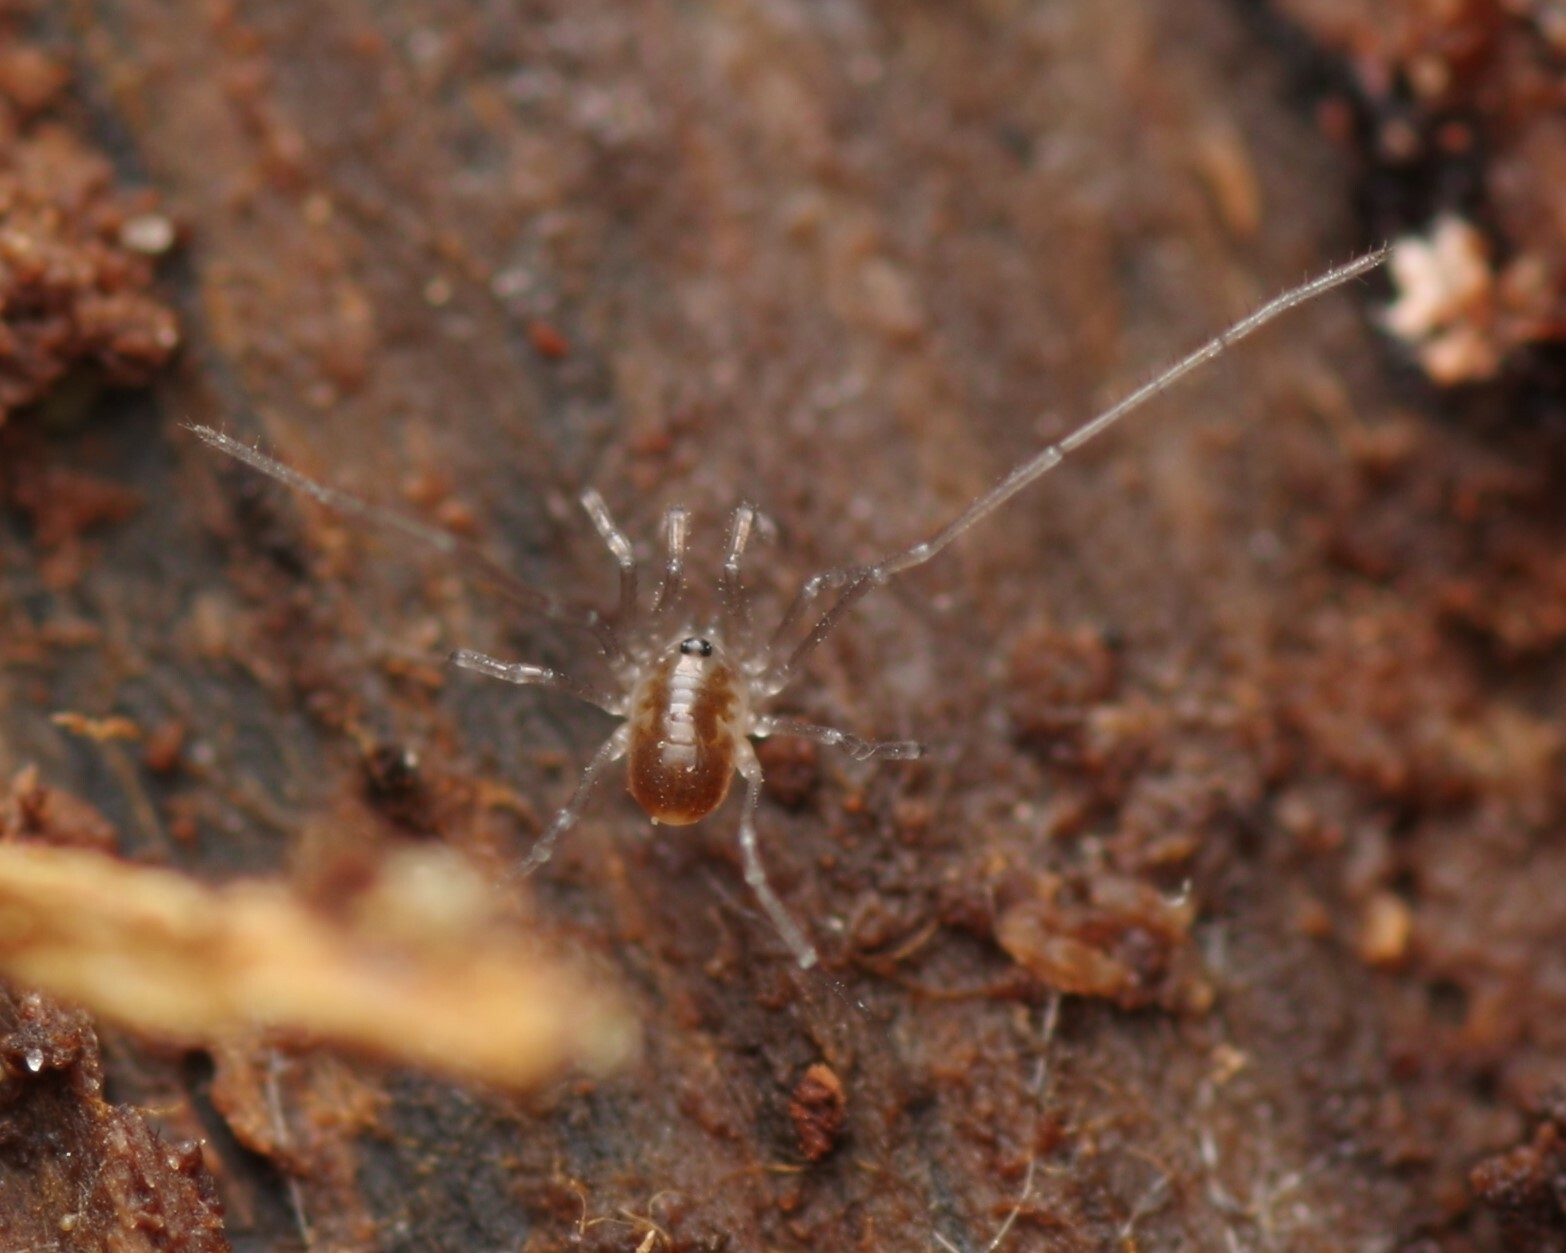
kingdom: Animalia
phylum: Arthropoda
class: Arachnida
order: Opiliones
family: Nemastomatidae
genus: Mitostoma
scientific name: Mitostoma chrysomelas
